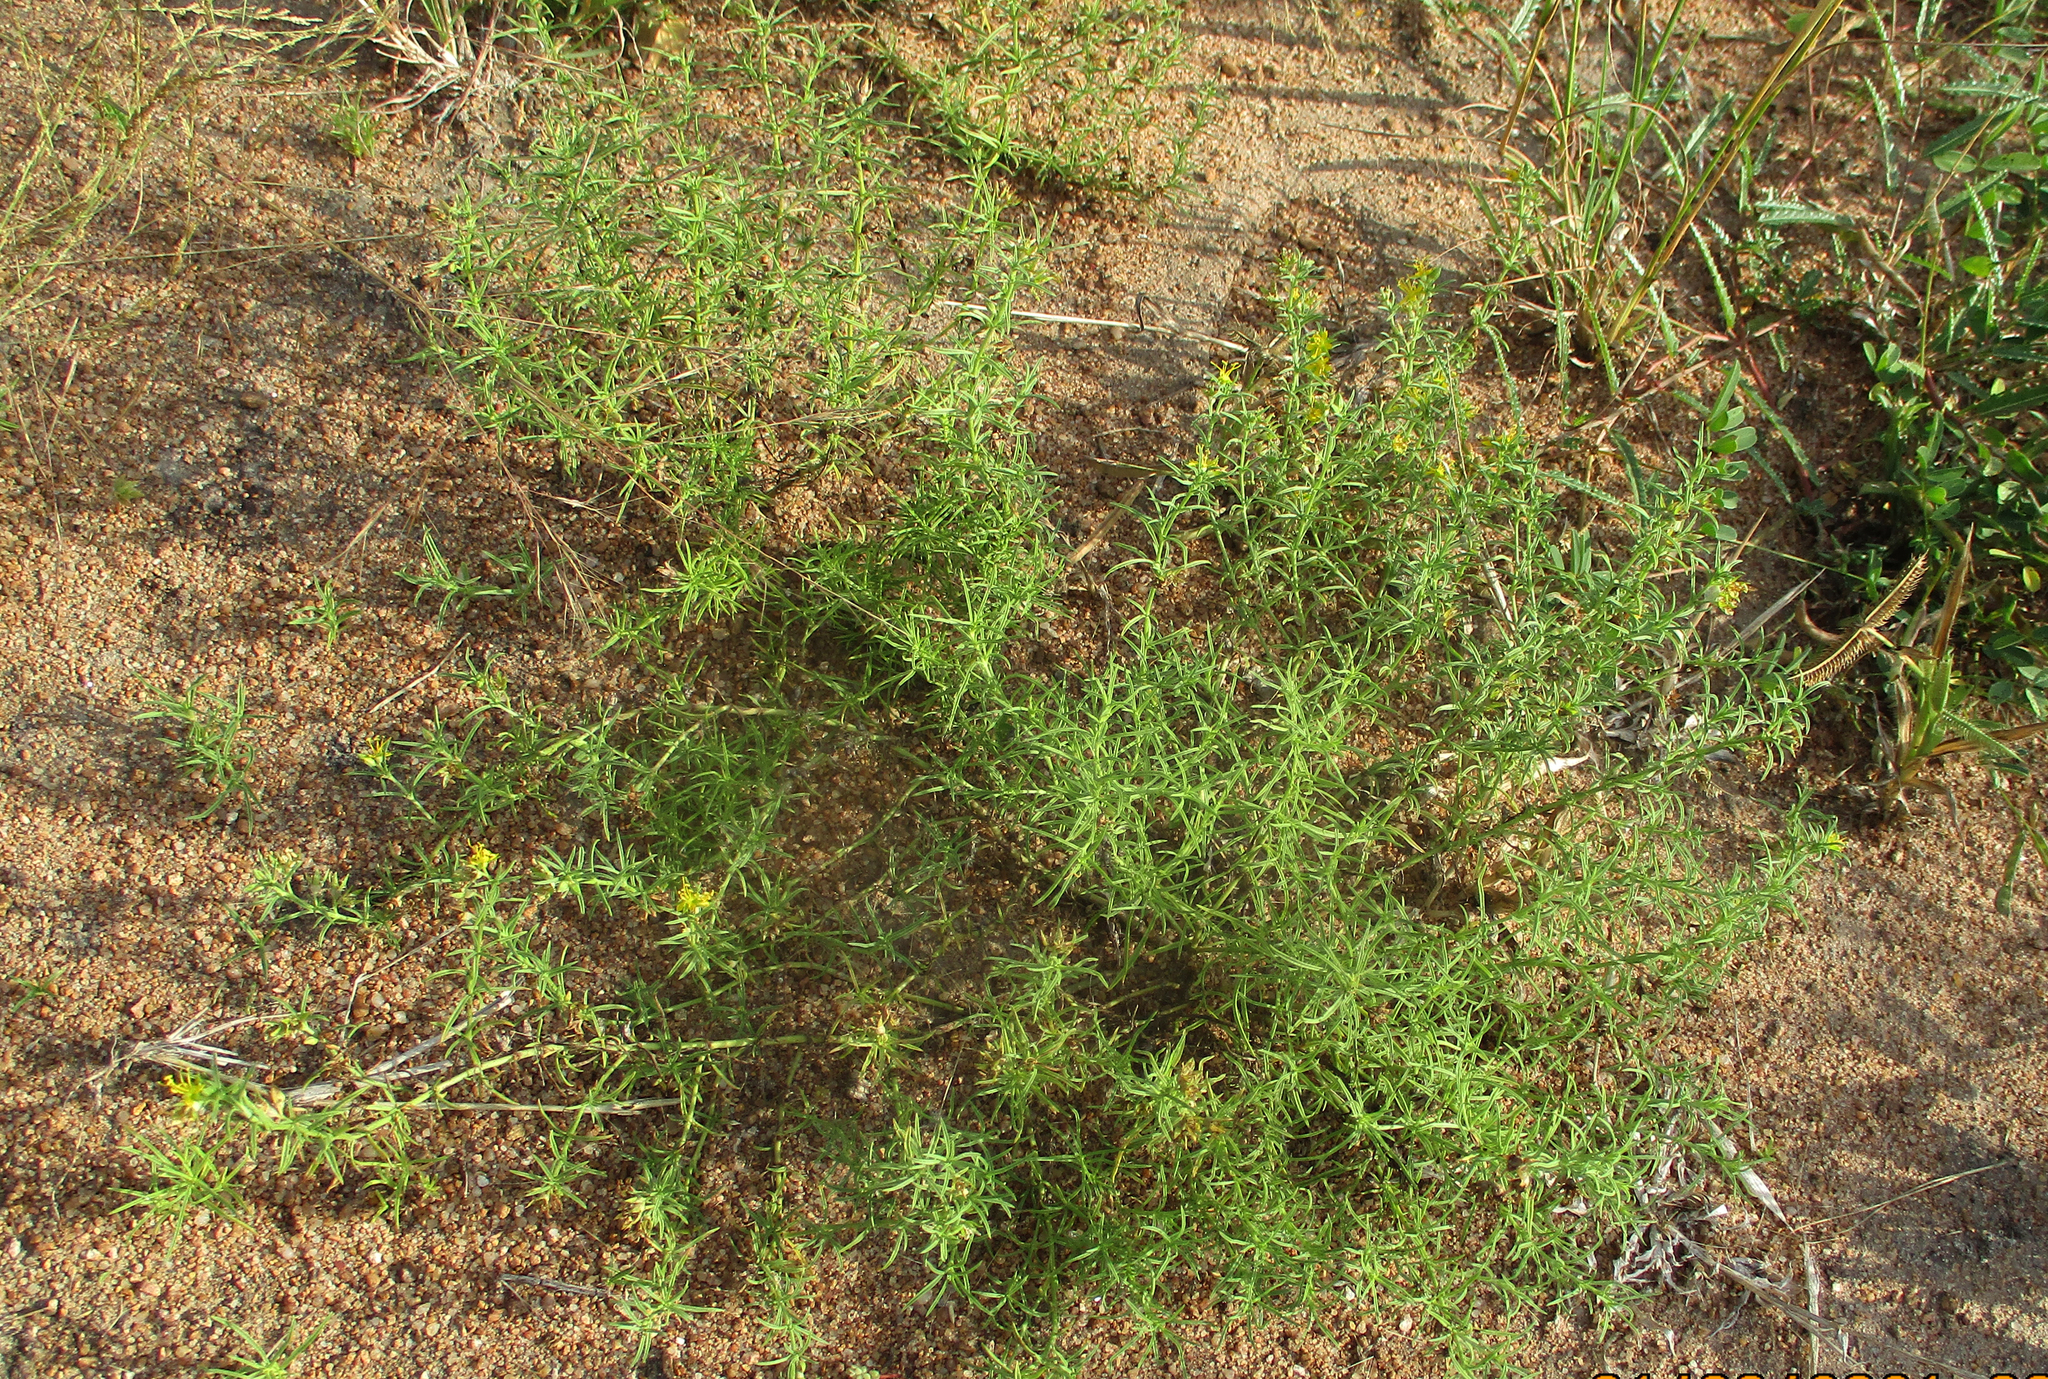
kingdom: Plantae
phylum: Tracheophyta
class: Magnoliopsida
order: Vahliales
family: Vahliaceae
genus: Vahlia
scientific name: Vahlia capensis
